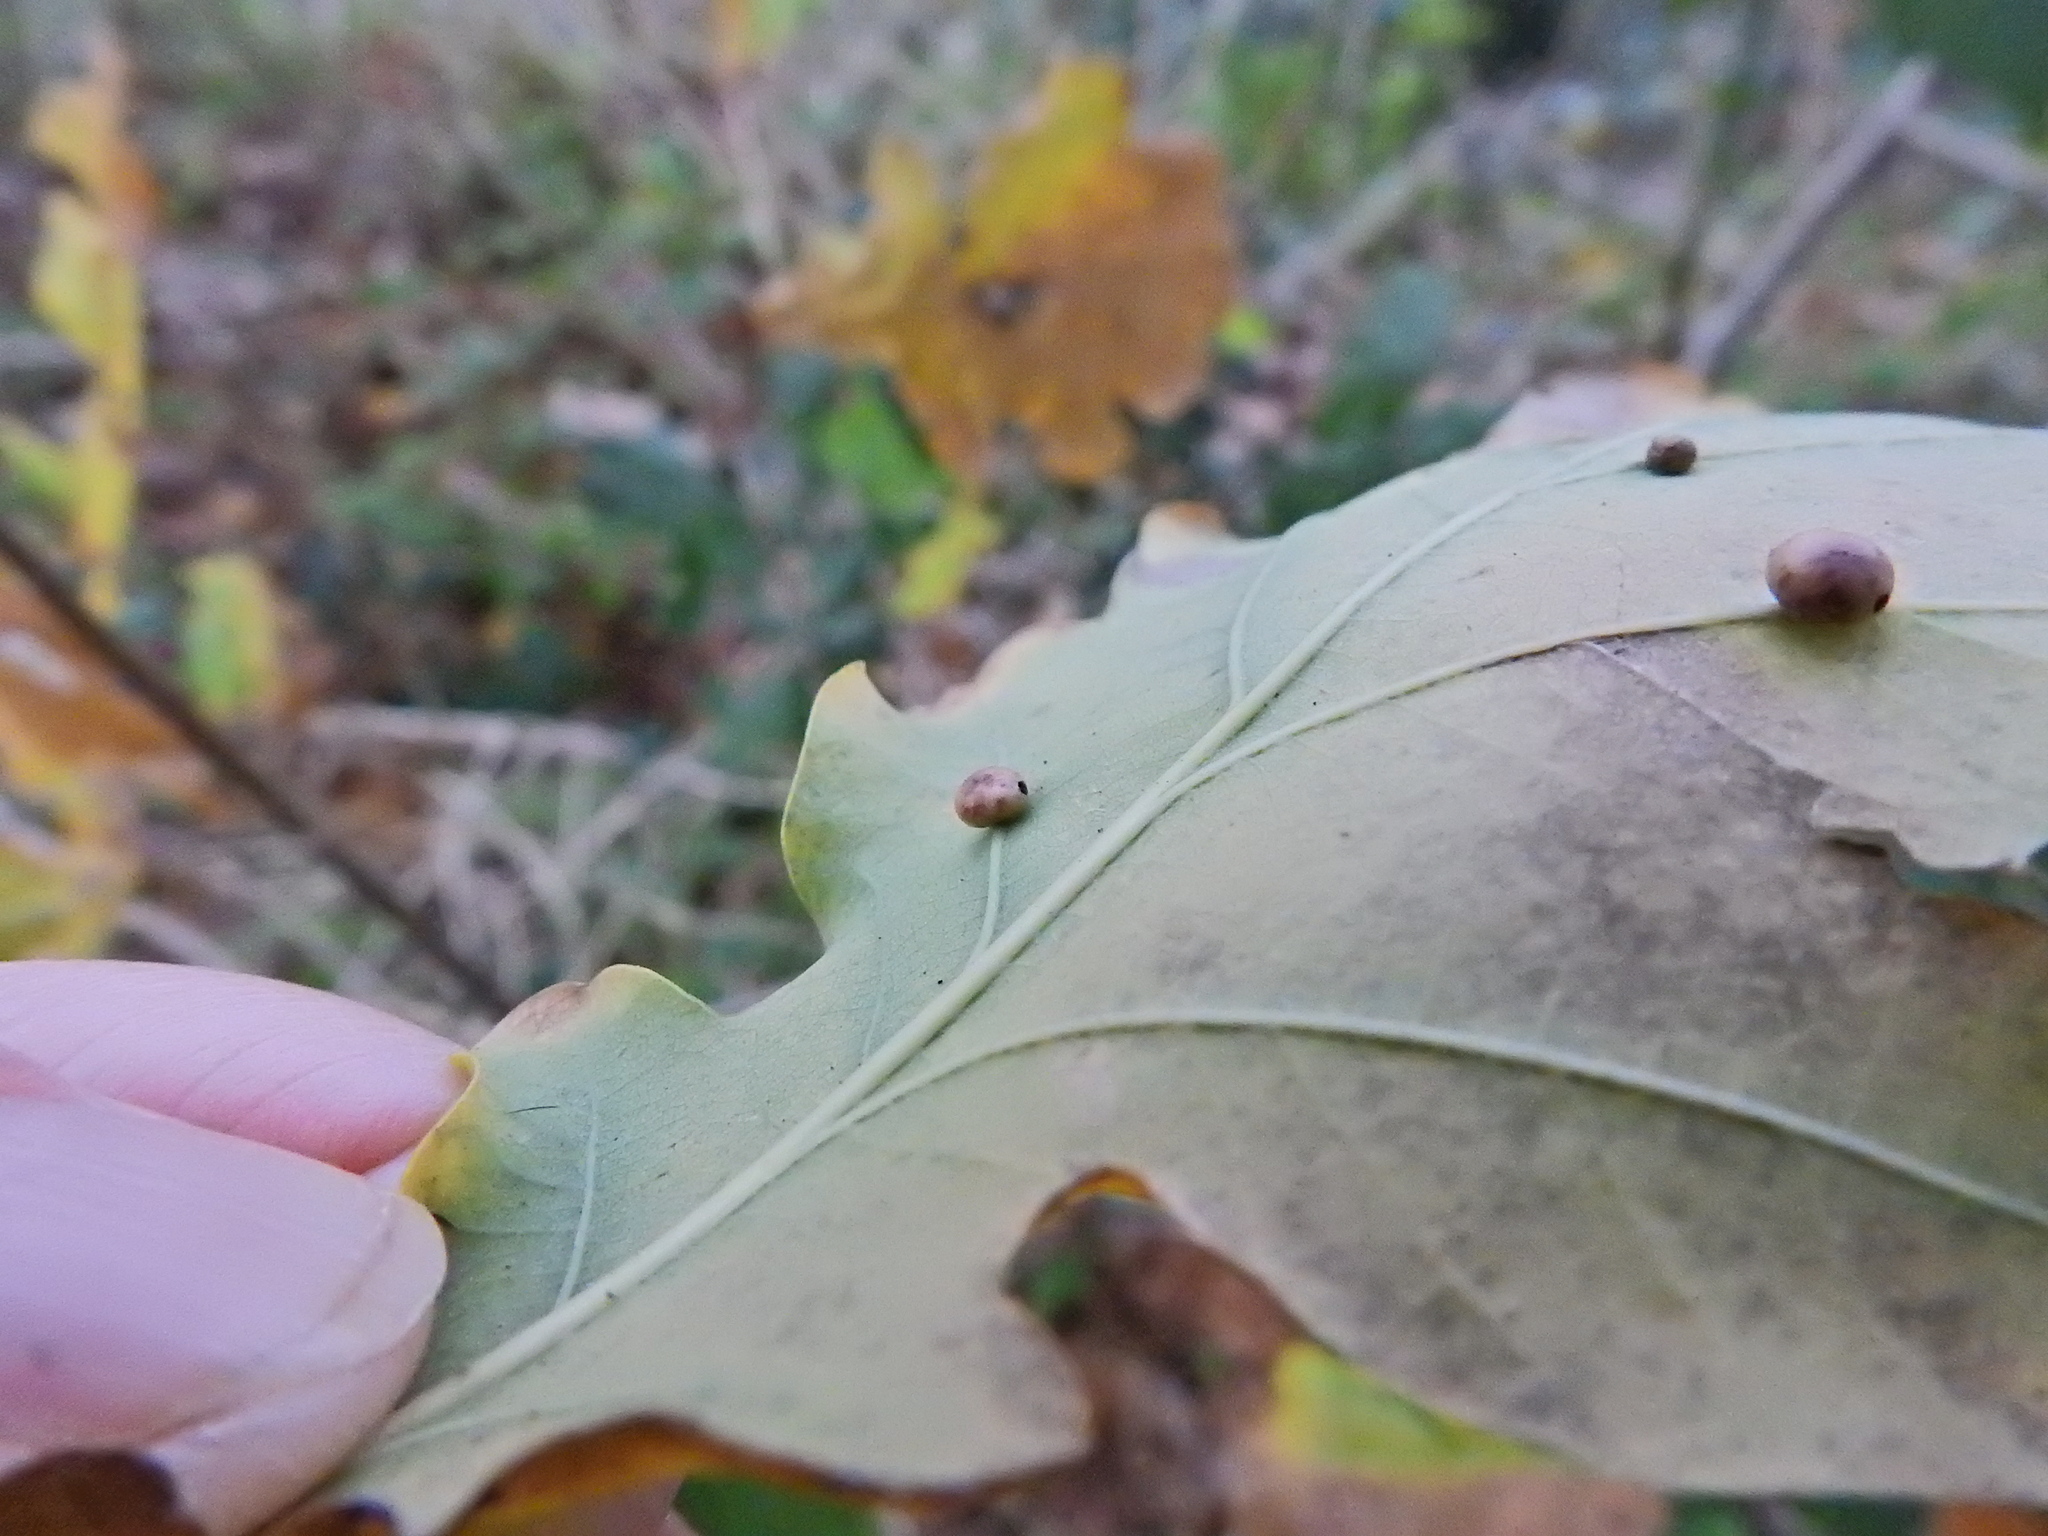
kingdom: Animalia
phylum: Arthropoda
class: Insecta
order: Hymenoptera
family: Cynipidae
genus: Cynips
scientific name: Cynips divisa
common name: Red currant gall
